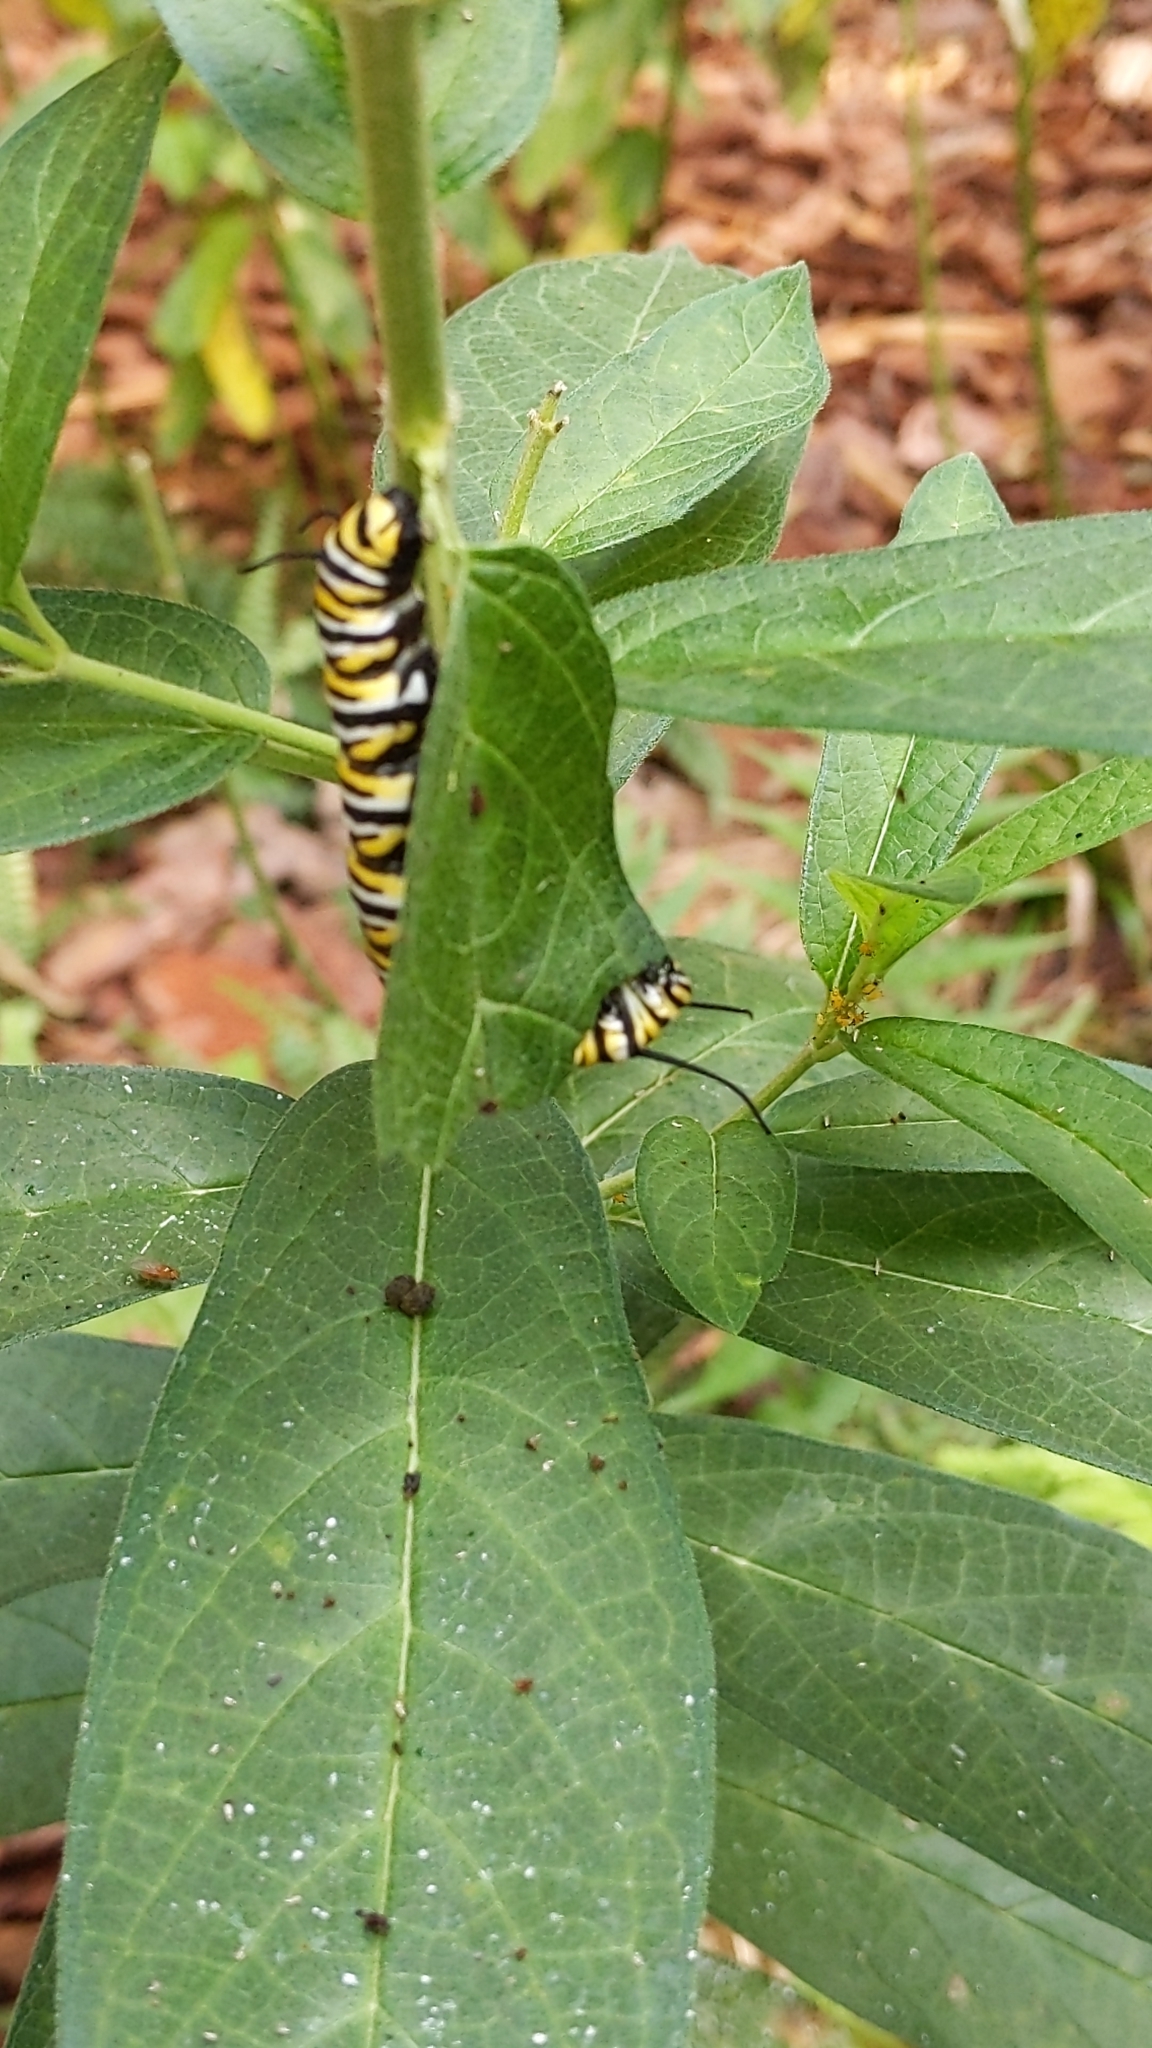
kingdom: Animalia
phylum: Arthropoda
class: Insecta
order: Lepidoptera
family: Nymphalidae
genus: Danaus
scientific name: Danaus plexippus
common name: Monarch
